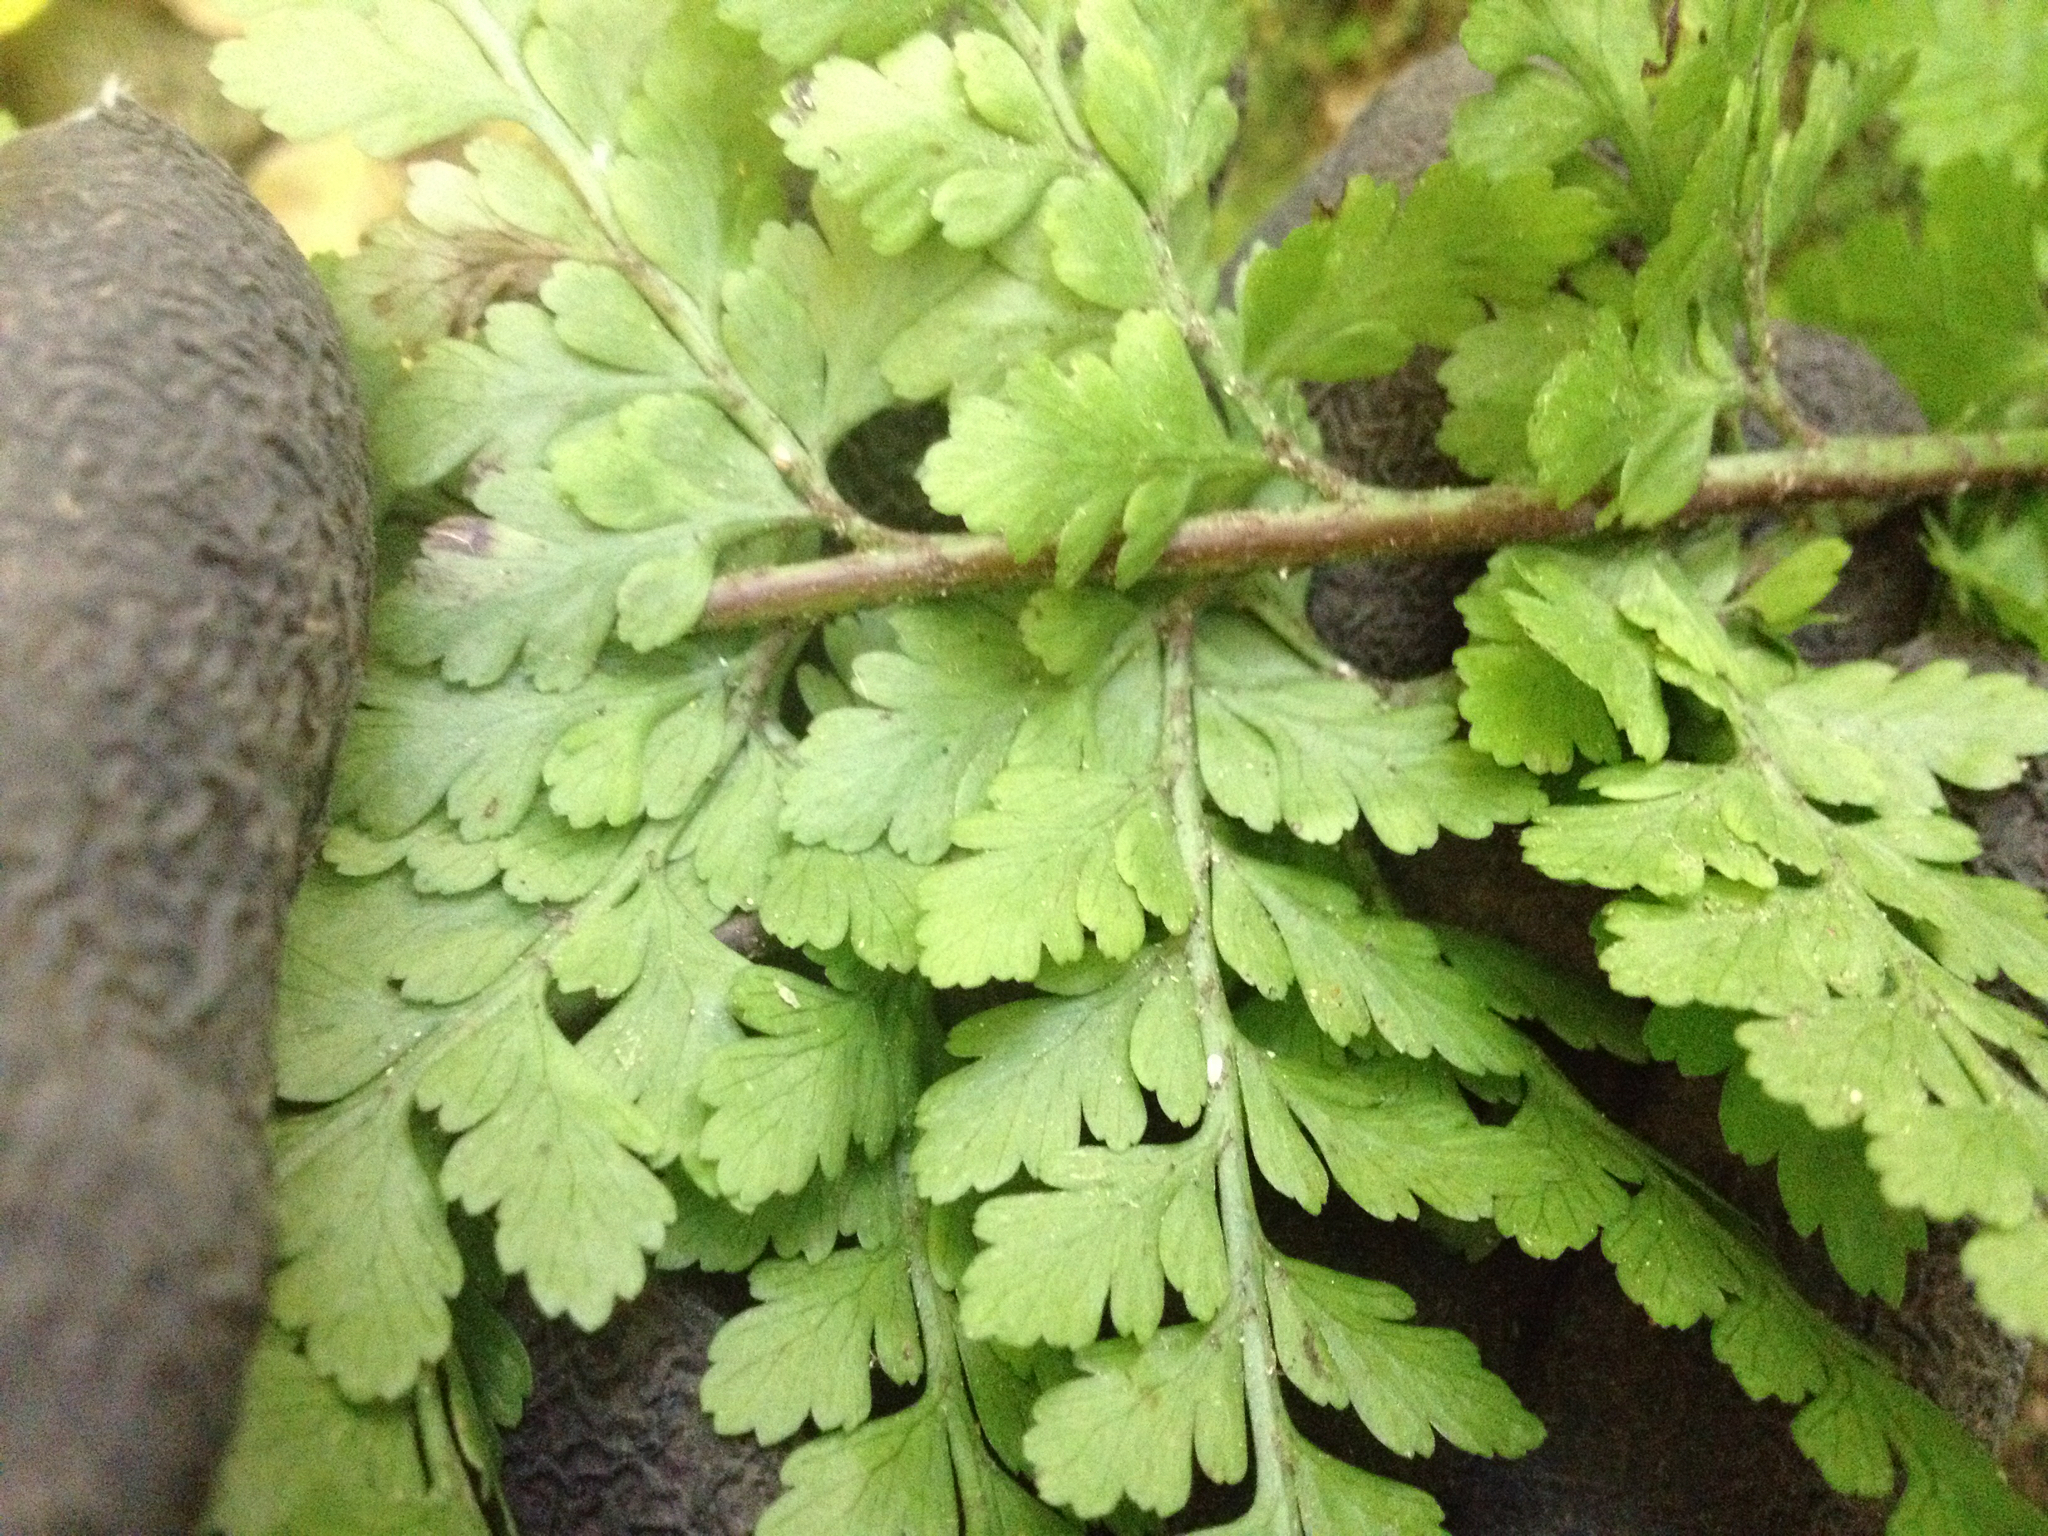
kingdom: Plantae
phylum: Tracheophyta
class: Polypodiopsida
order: Polypodiales
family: Aspleniaceae
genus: Asplenium
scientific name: Asplenium
